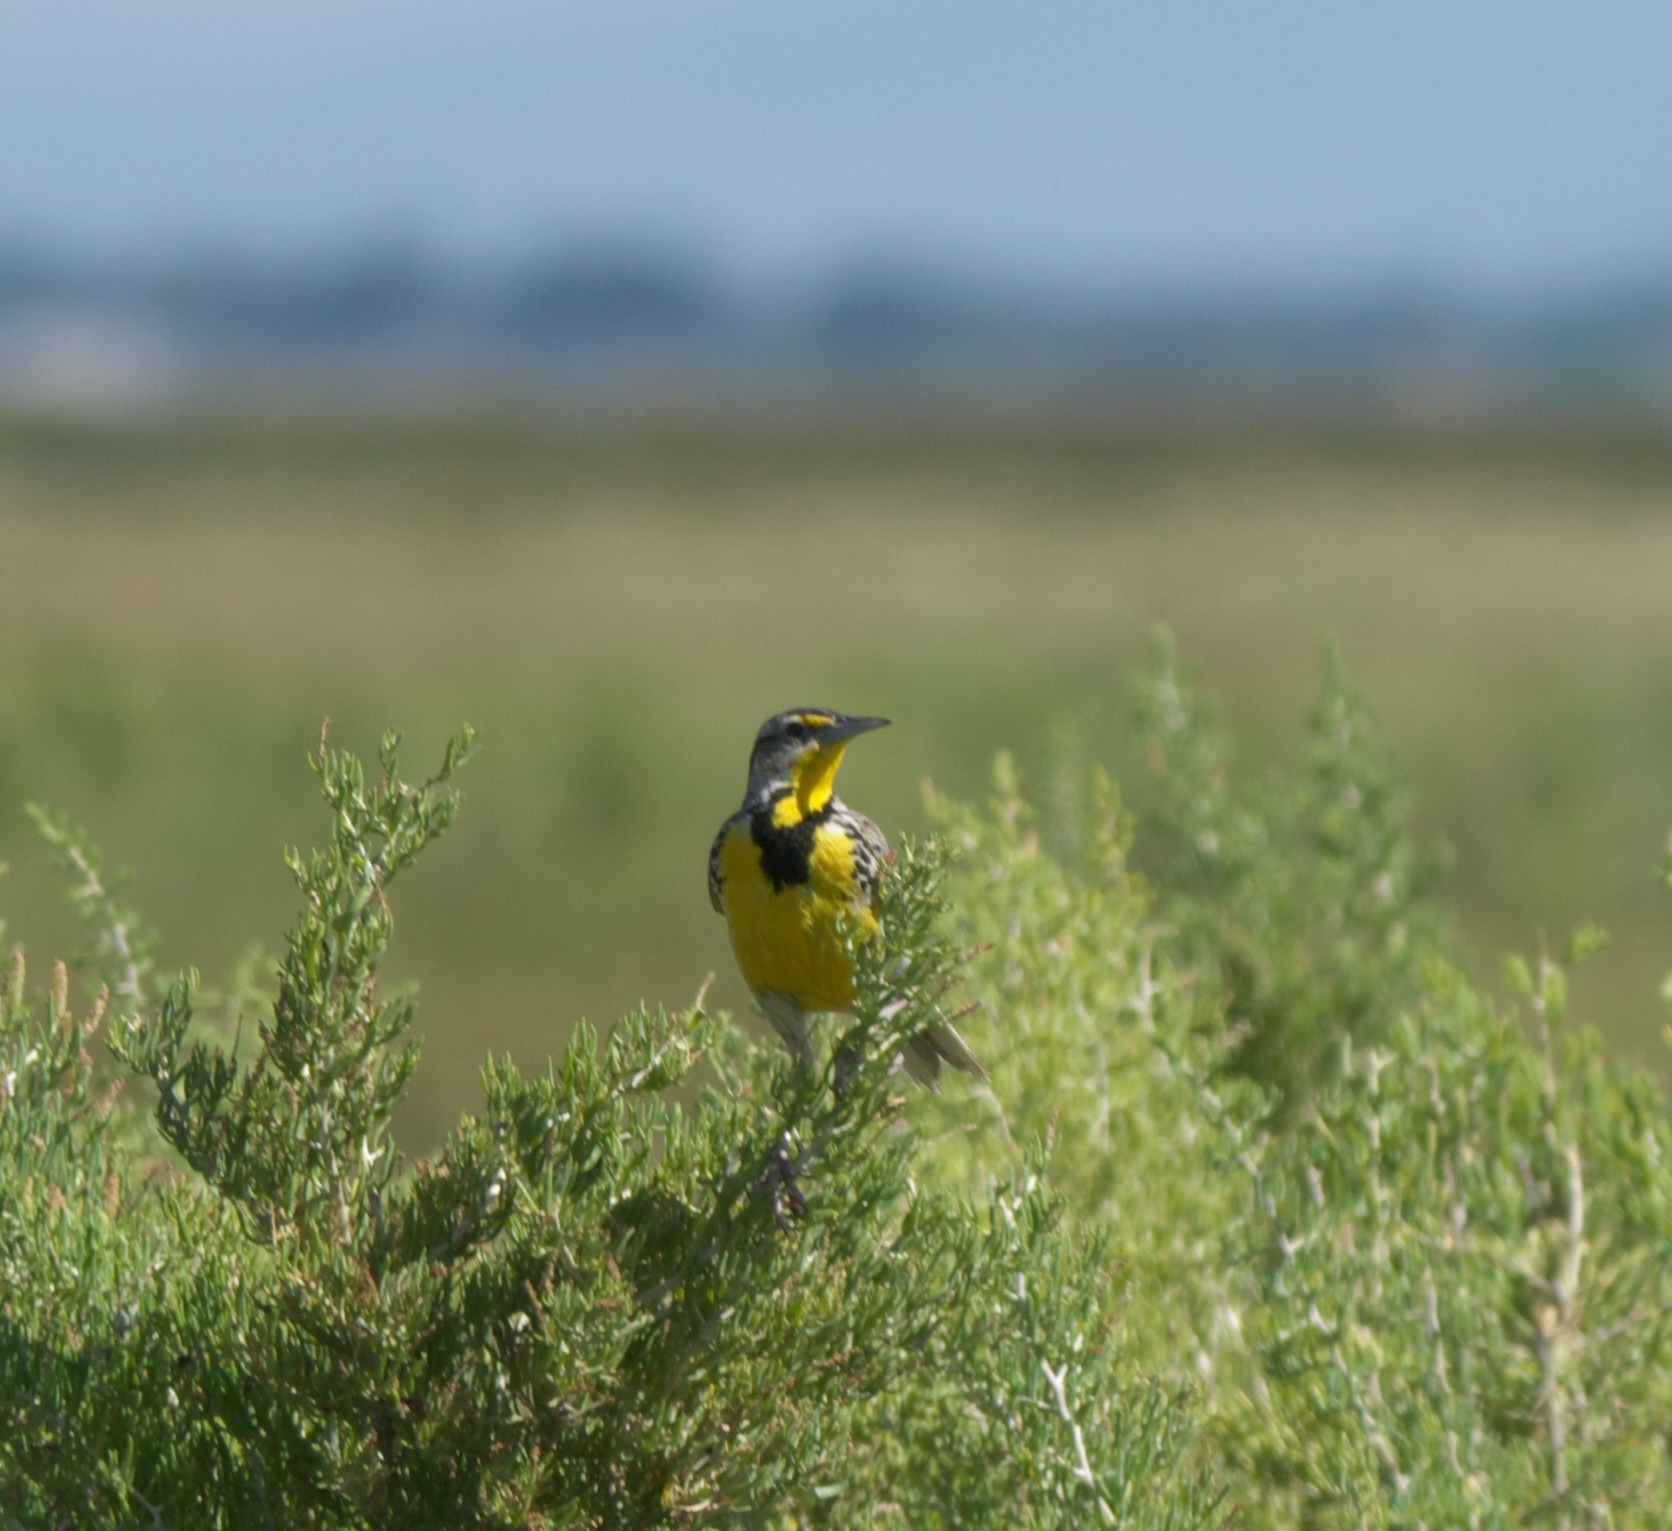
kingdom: Animalia
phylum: Chordata
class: Aves
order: Passeriformes
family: Icteridae
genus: Sturnella
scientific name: Sturnella neglecta
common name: Western meadowlark
